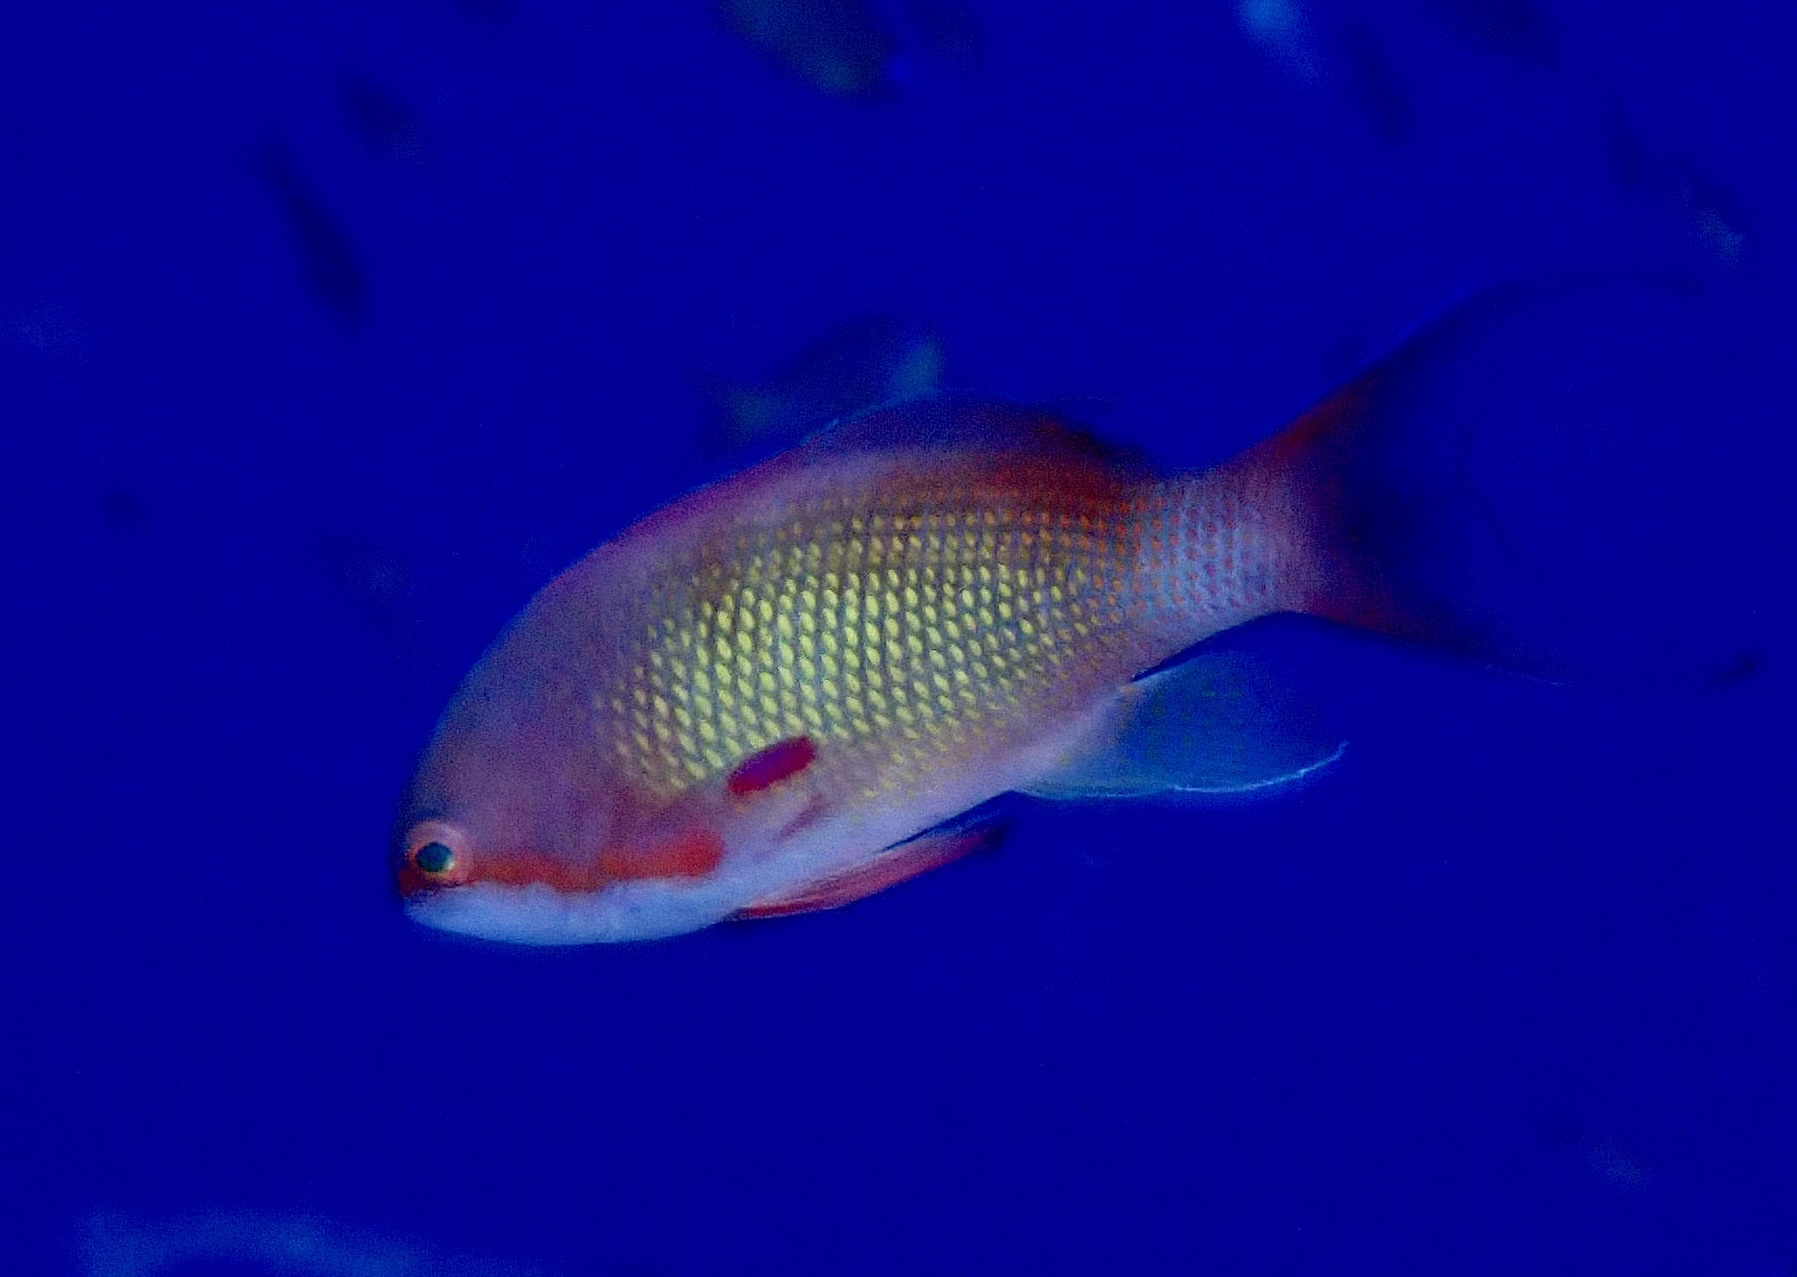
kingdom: Animalia
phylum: Chordata
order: Perciformes
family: Serranidae
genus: Pseudanthias
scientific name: Pseudanthias squamipinnis
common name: Scalefin anthias
